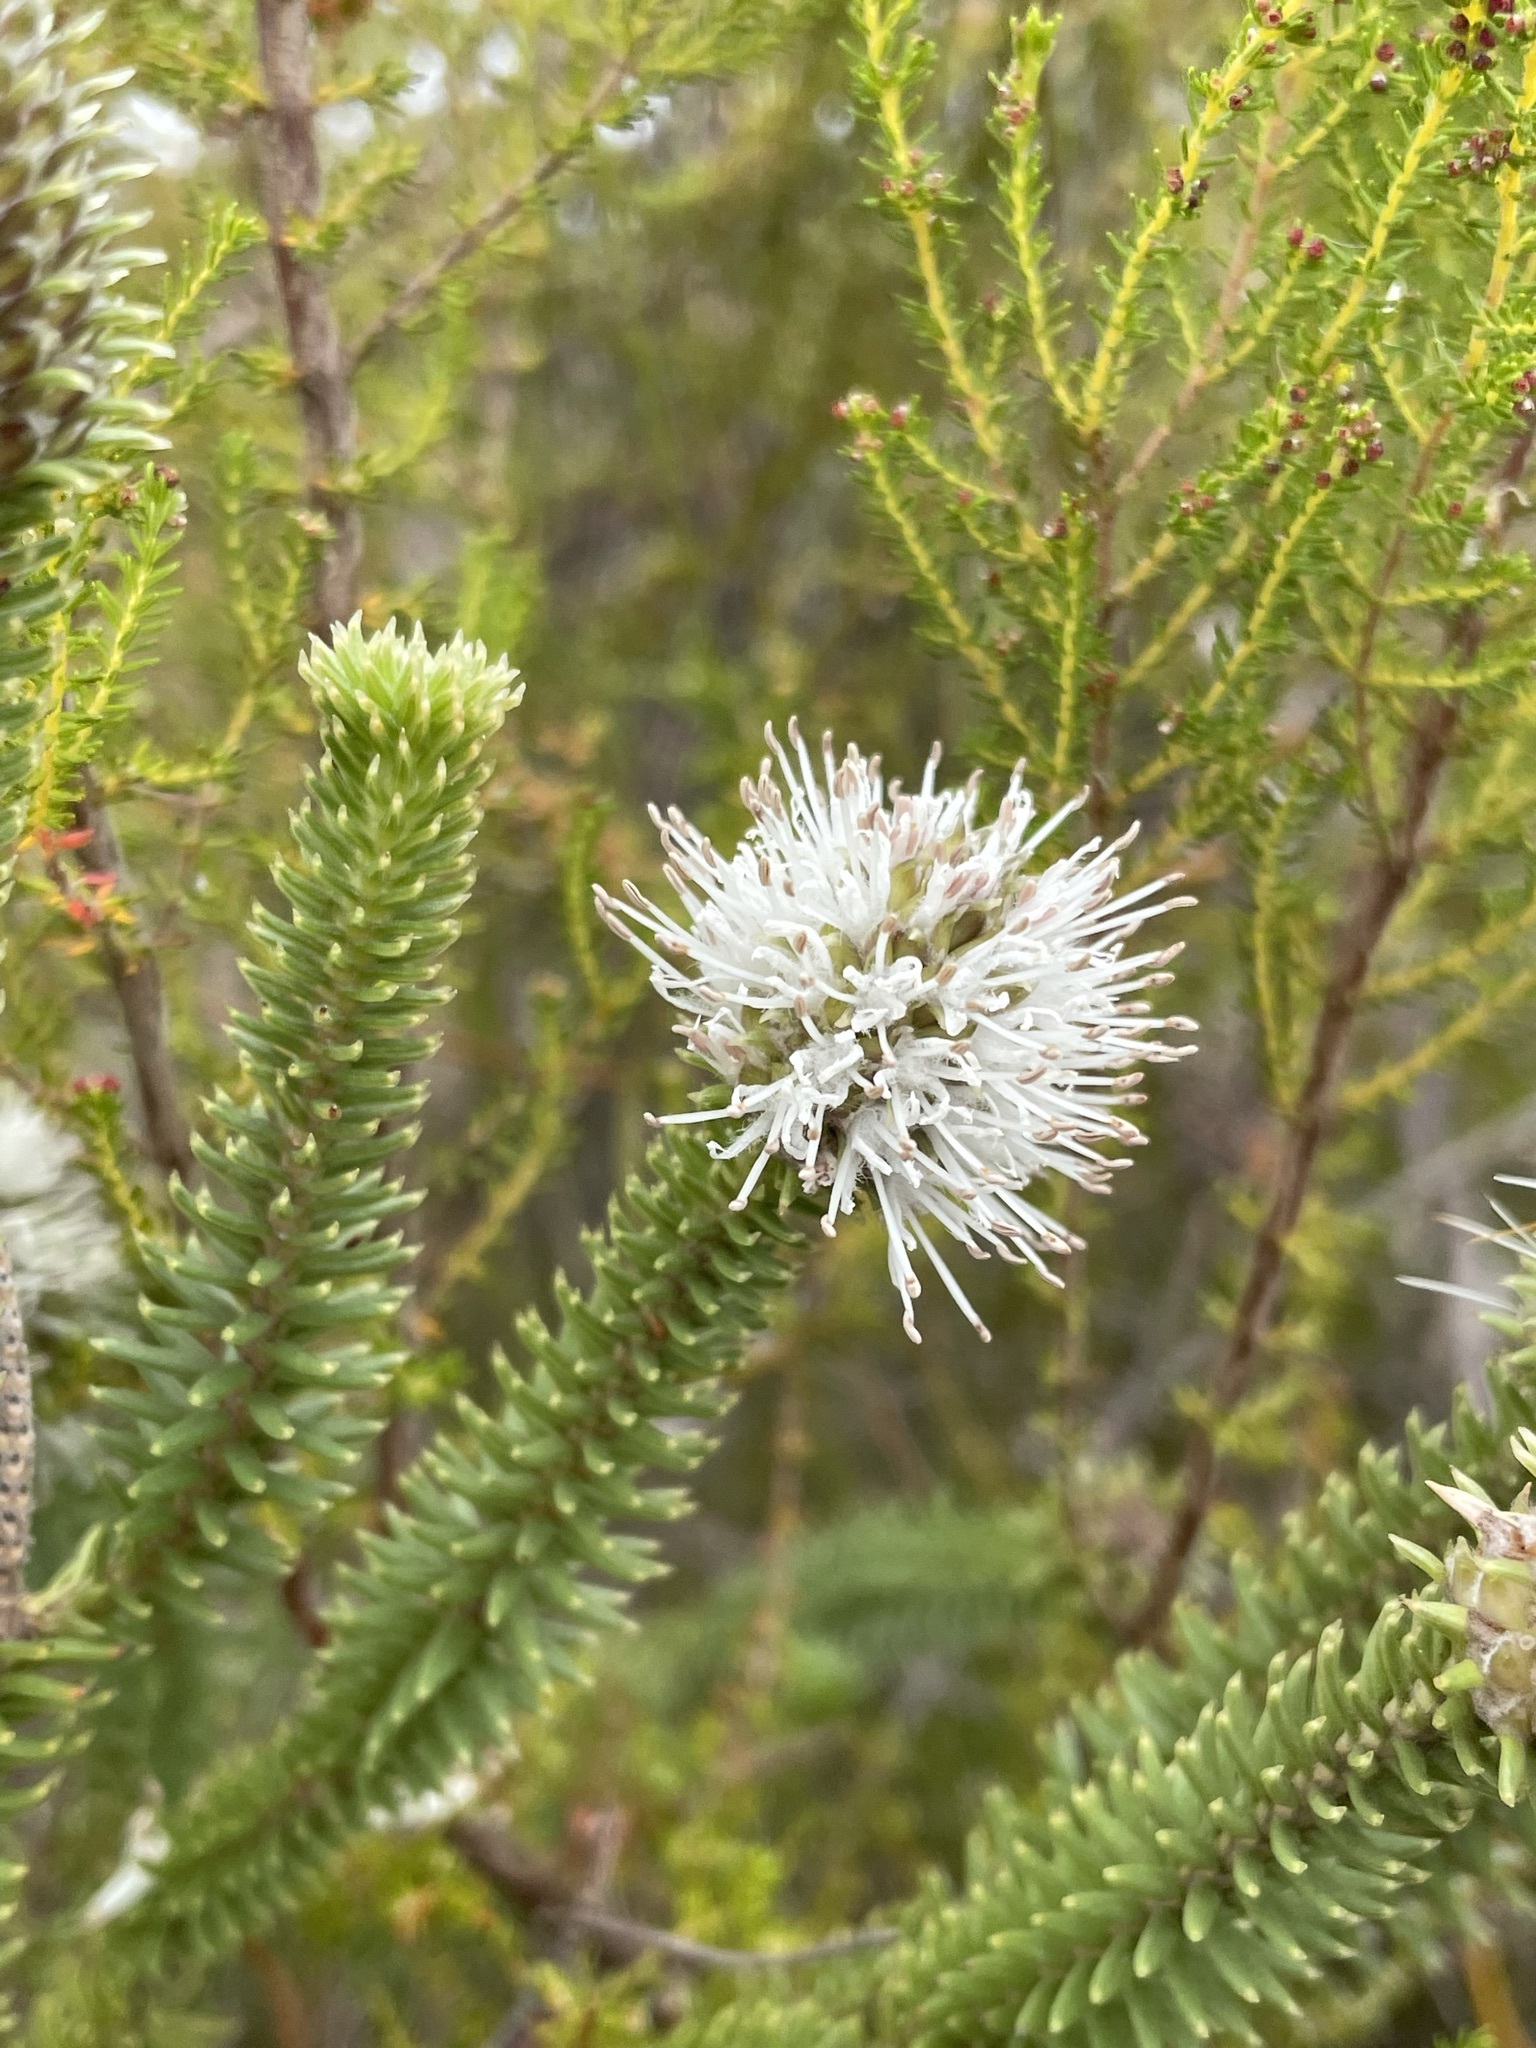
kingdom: Plantae
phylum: Tracheophyta
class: Magnoliopsida
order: Lamiales
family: Stilbaceae
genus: Stilbe
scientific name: Stilbe vestita
